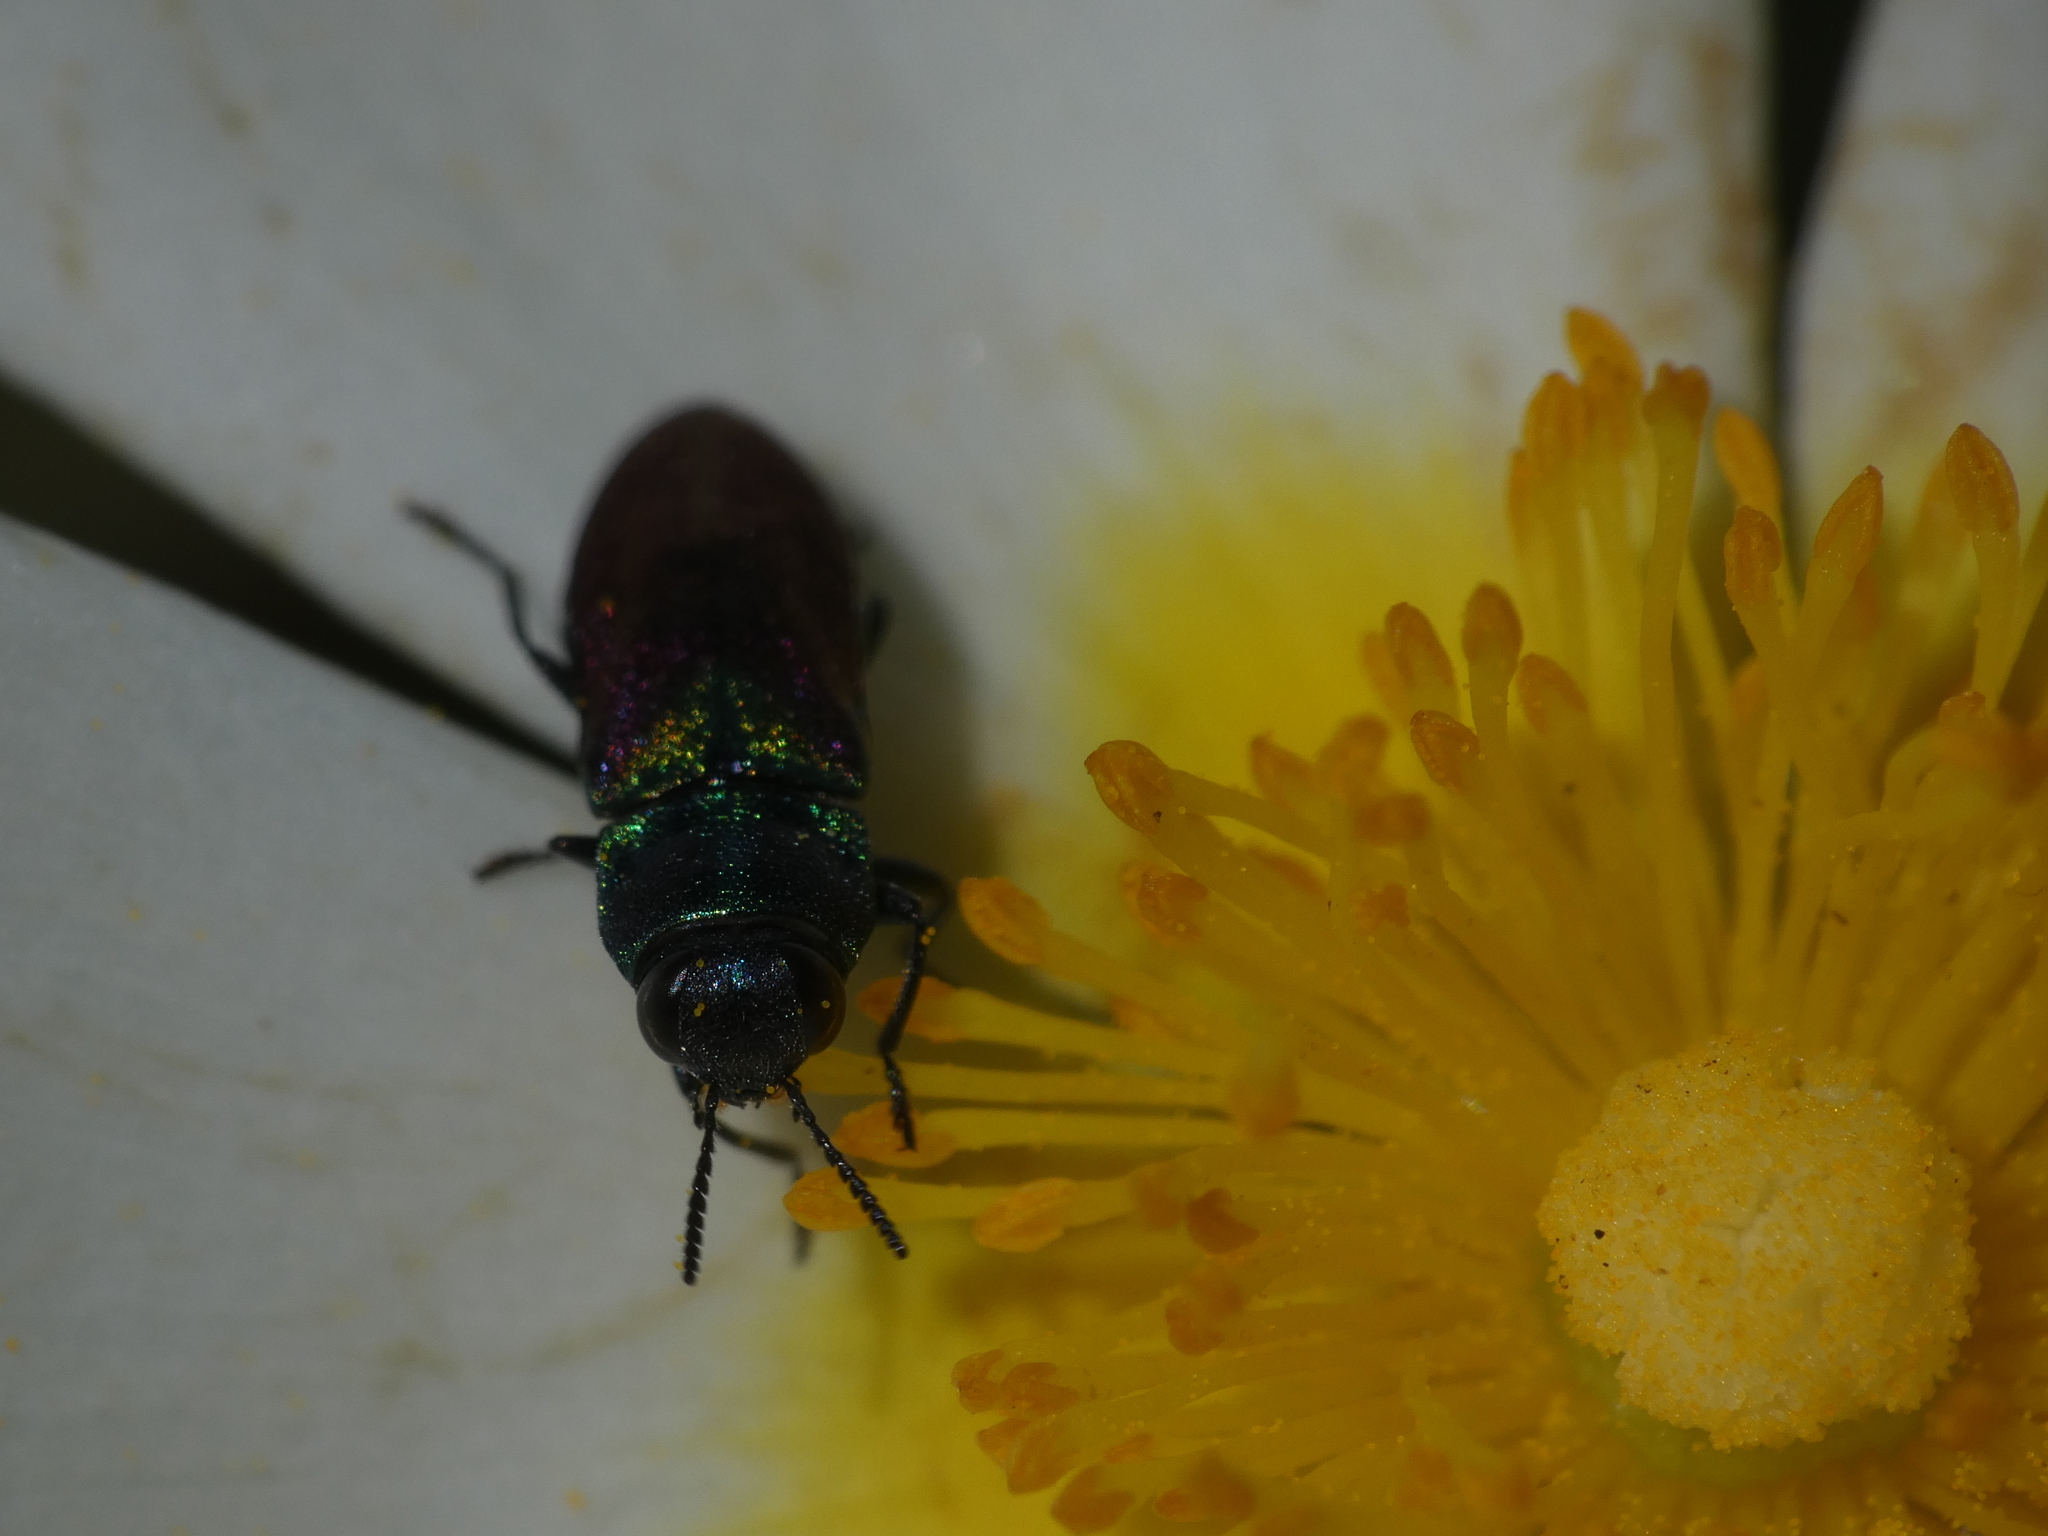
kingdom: Animalia
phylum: Arthropoda
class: Insecta
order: Coleoptera
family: Buprestidae
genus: Anthaxia
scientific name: Anthaxia salicis
